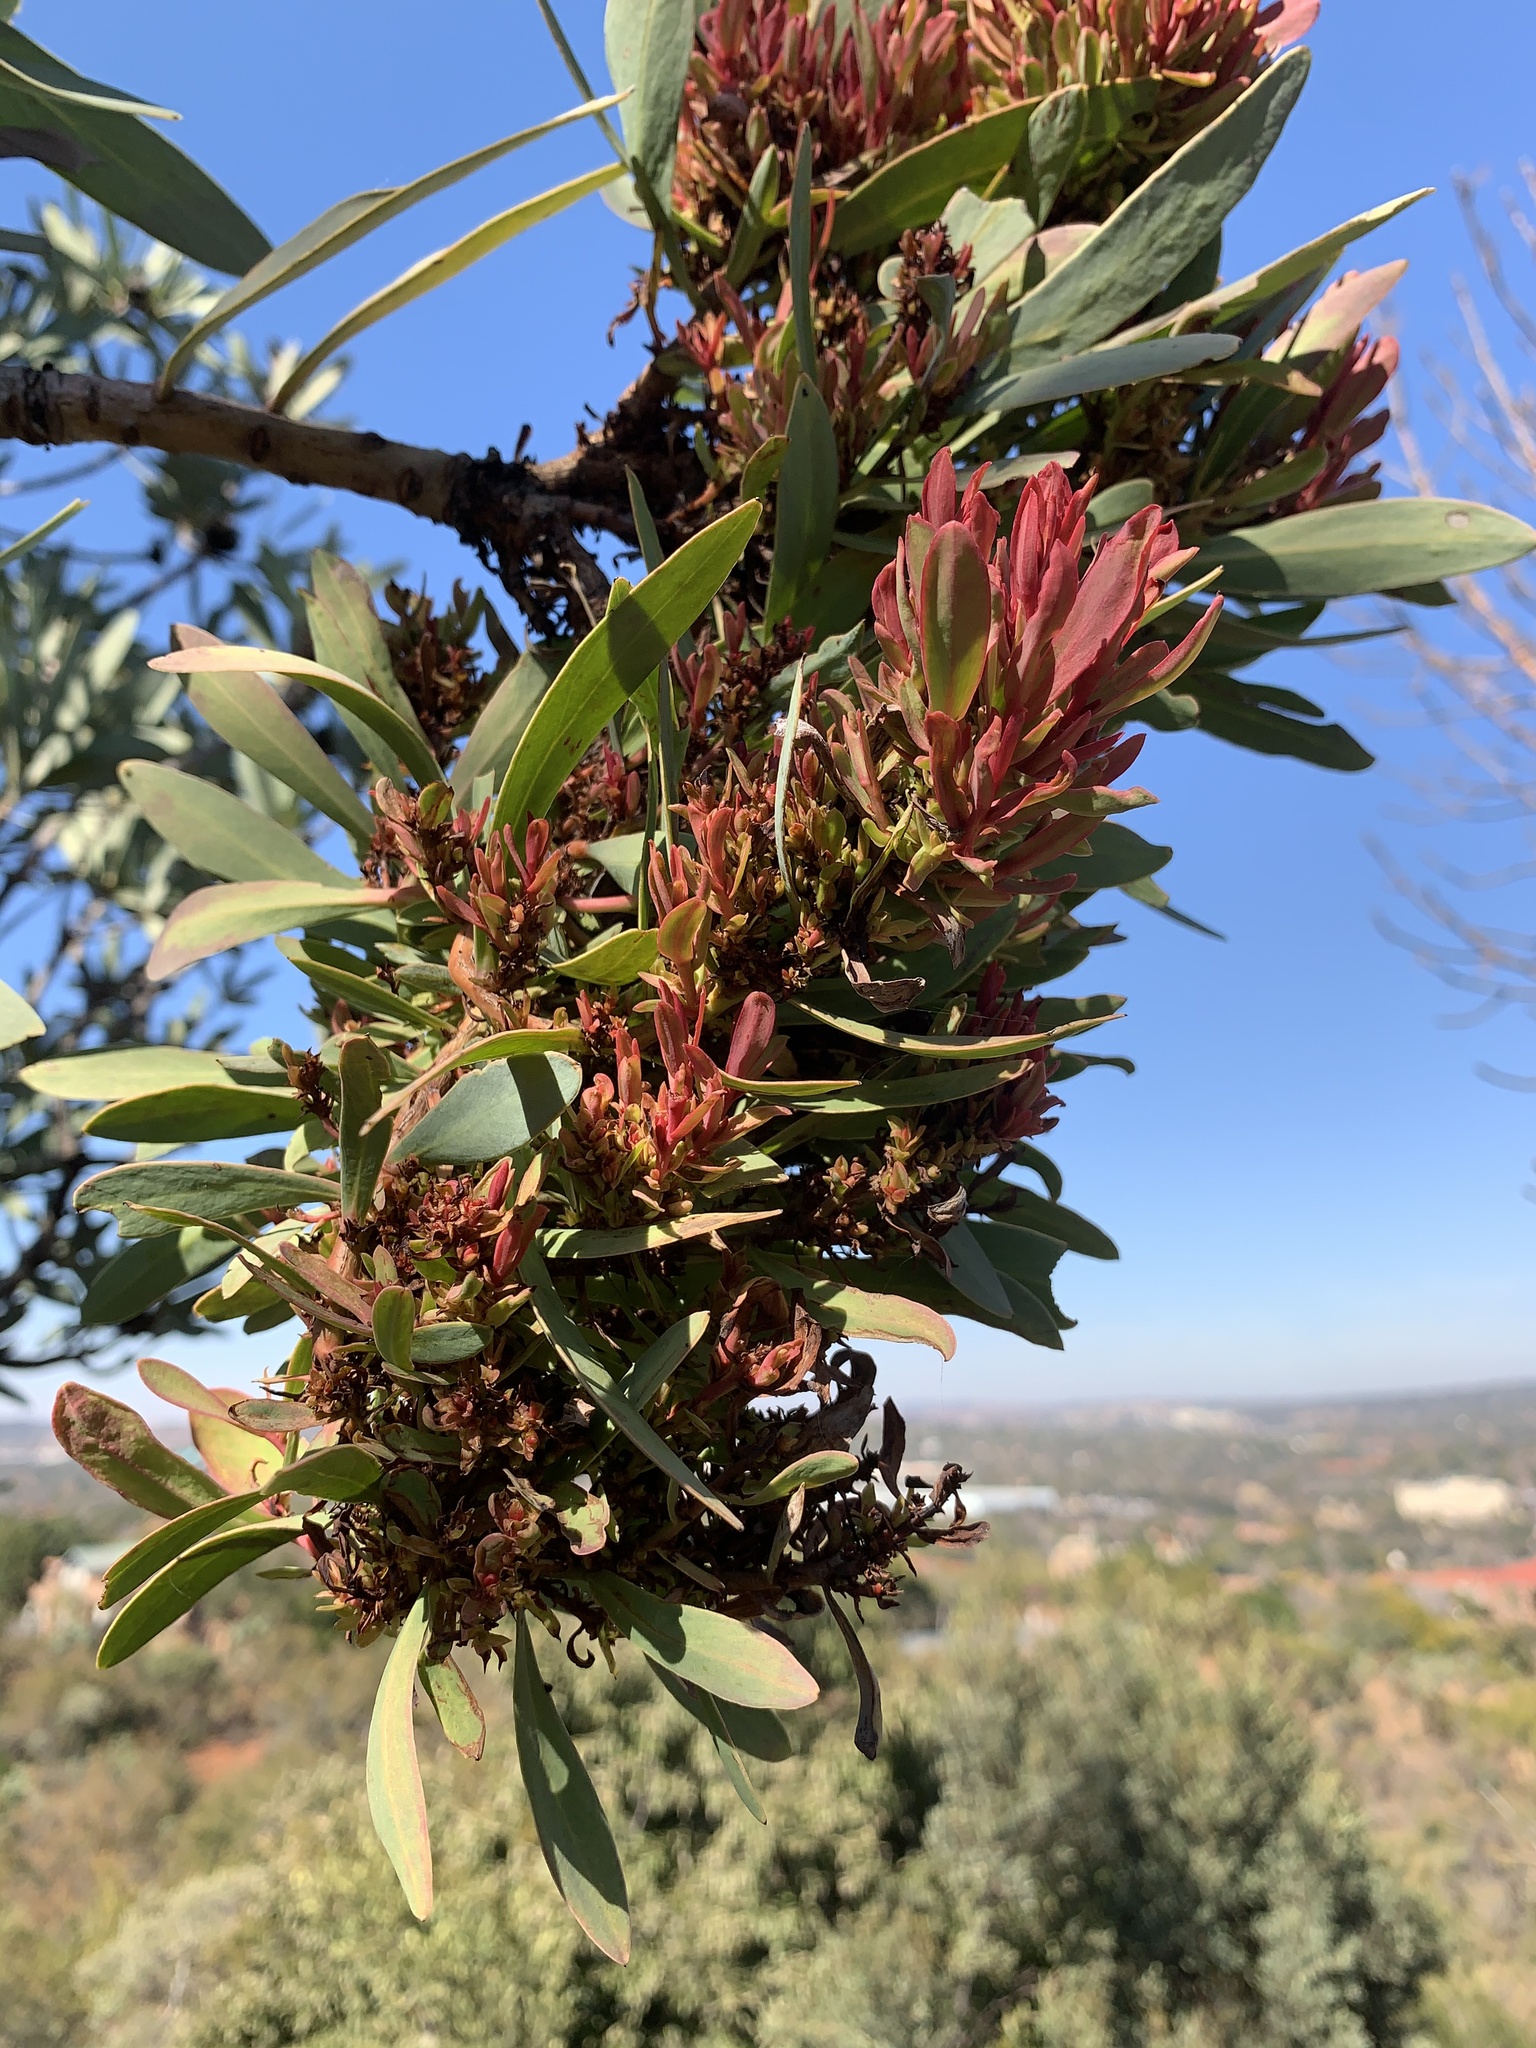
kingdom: Bacteria
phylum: Firmicutes
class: Bacilli
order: Acholeplasmatales
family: Acholeplasmataceae
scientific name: Acholeplasmataceae
